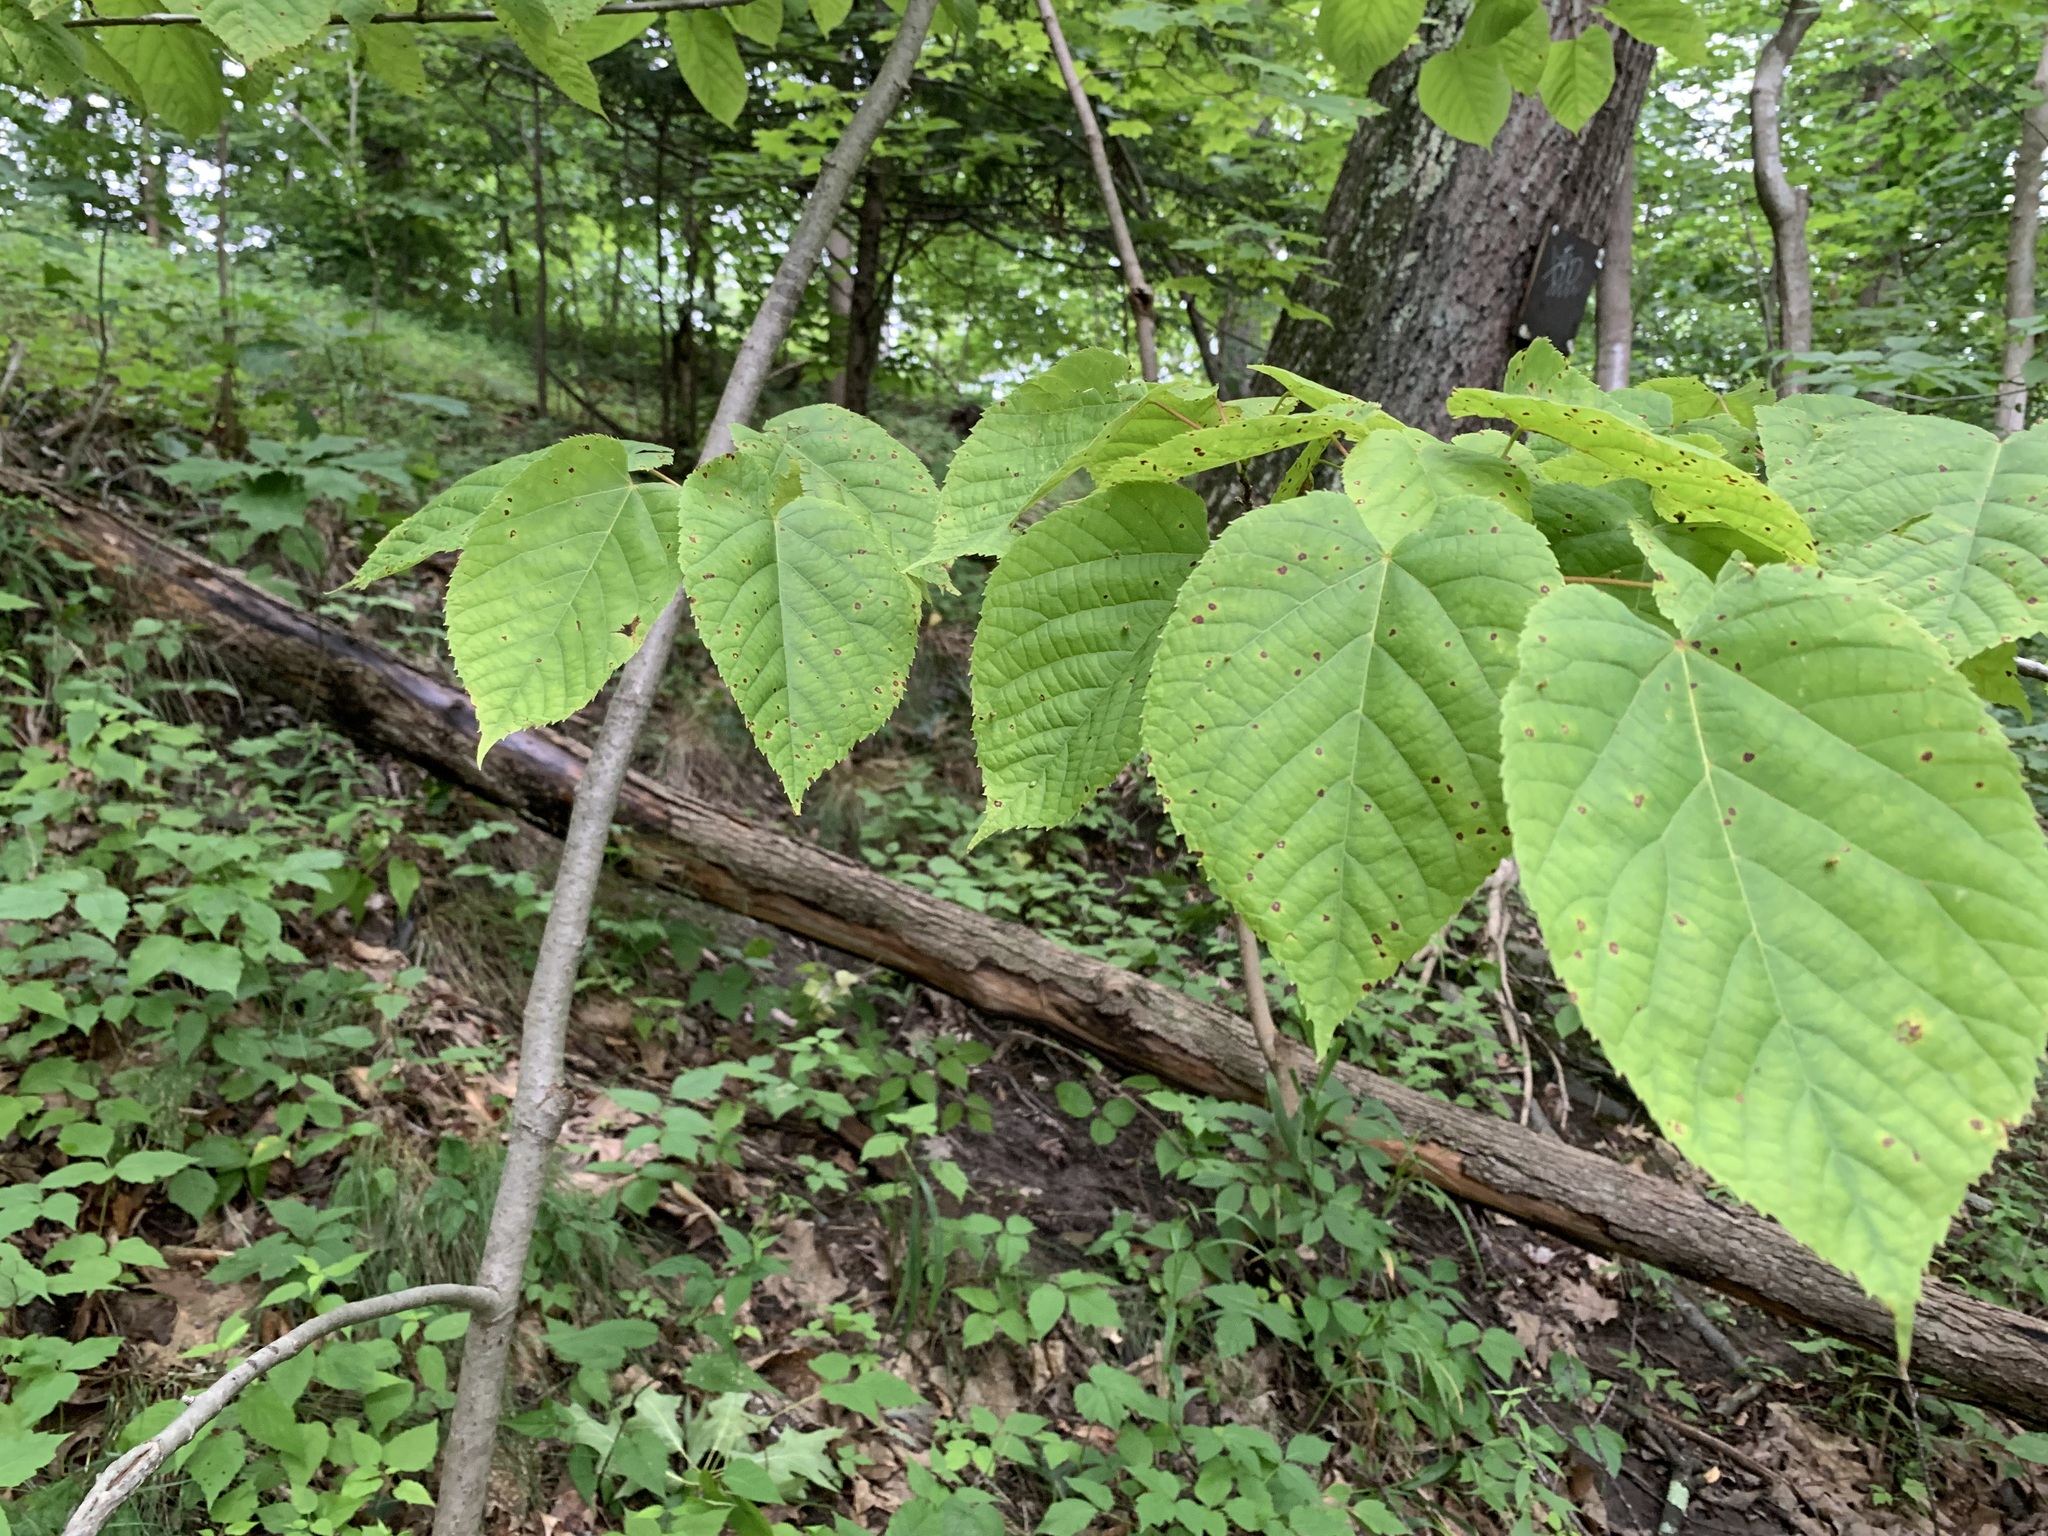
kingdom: Plantae
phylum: Tracheophyta
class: Magnoliopsida
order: Malvales
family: Malvaceae
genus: Tilia
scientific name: Tilia americana
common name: Basswood
